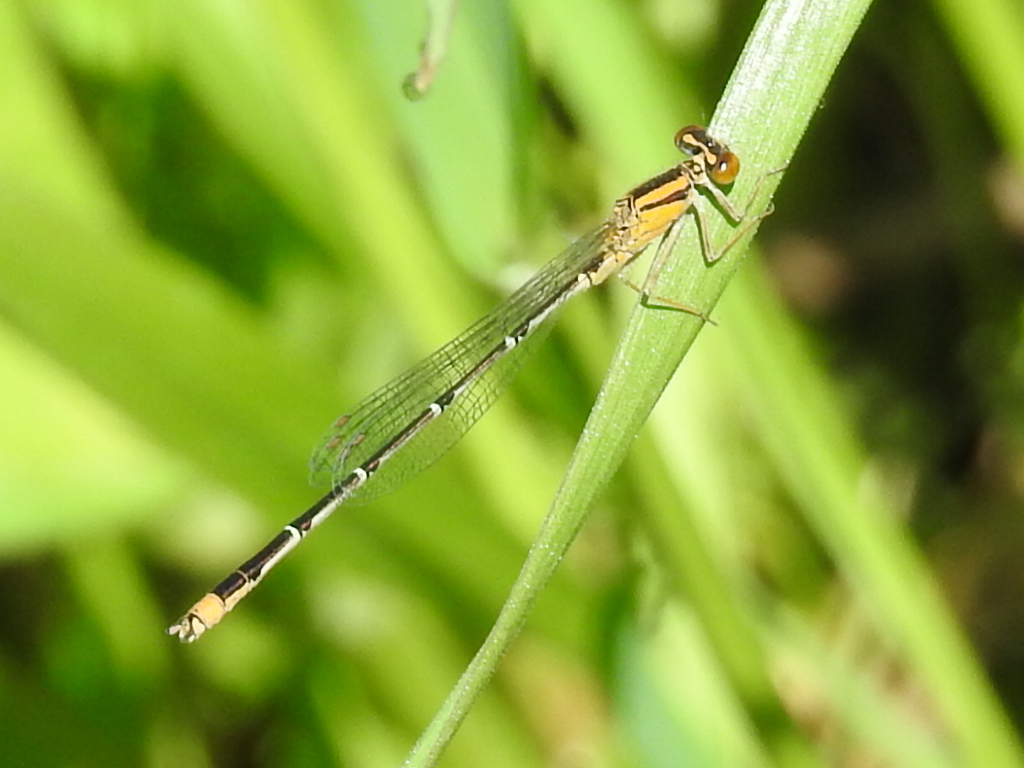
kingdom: Animalia
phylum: Arthropoda
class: Insecta
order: Odonata
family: Coenagrionidae
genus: Enallagma
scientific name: Enallagma signatum
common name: Orange bluet
